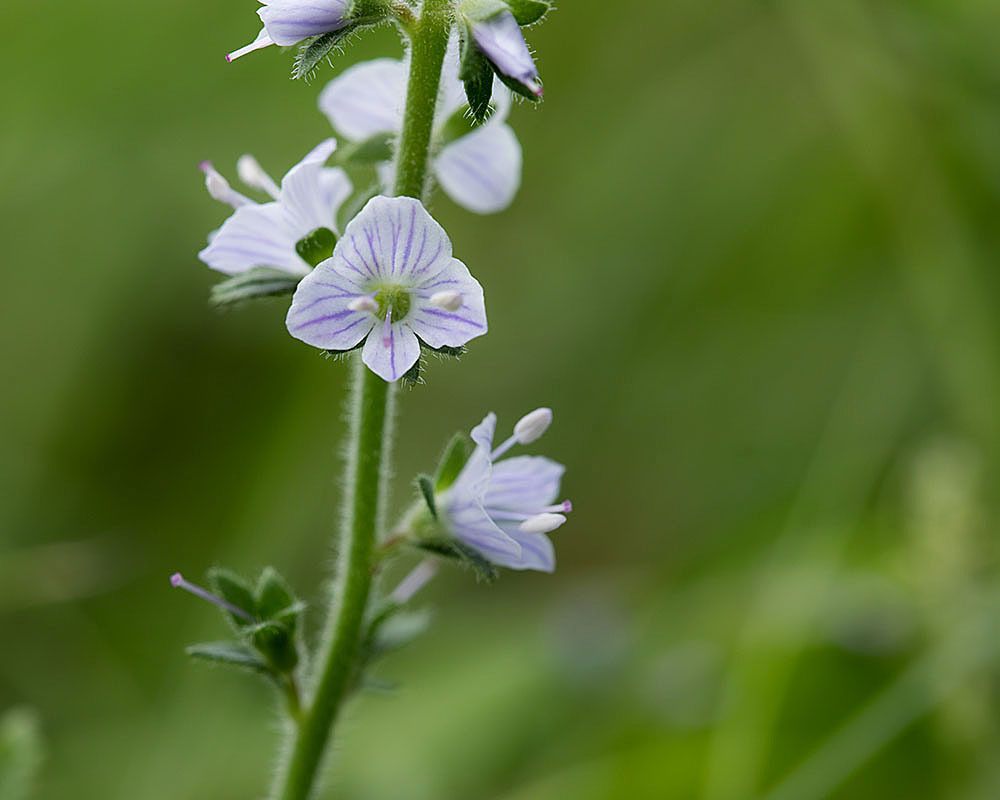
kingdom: Plantae
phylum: Tracheophyta
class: Magnoliopsida
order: Lamiales
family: Plantaginaceae
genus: Veronica
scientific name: Veronica officinalis
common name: Common speedwell
